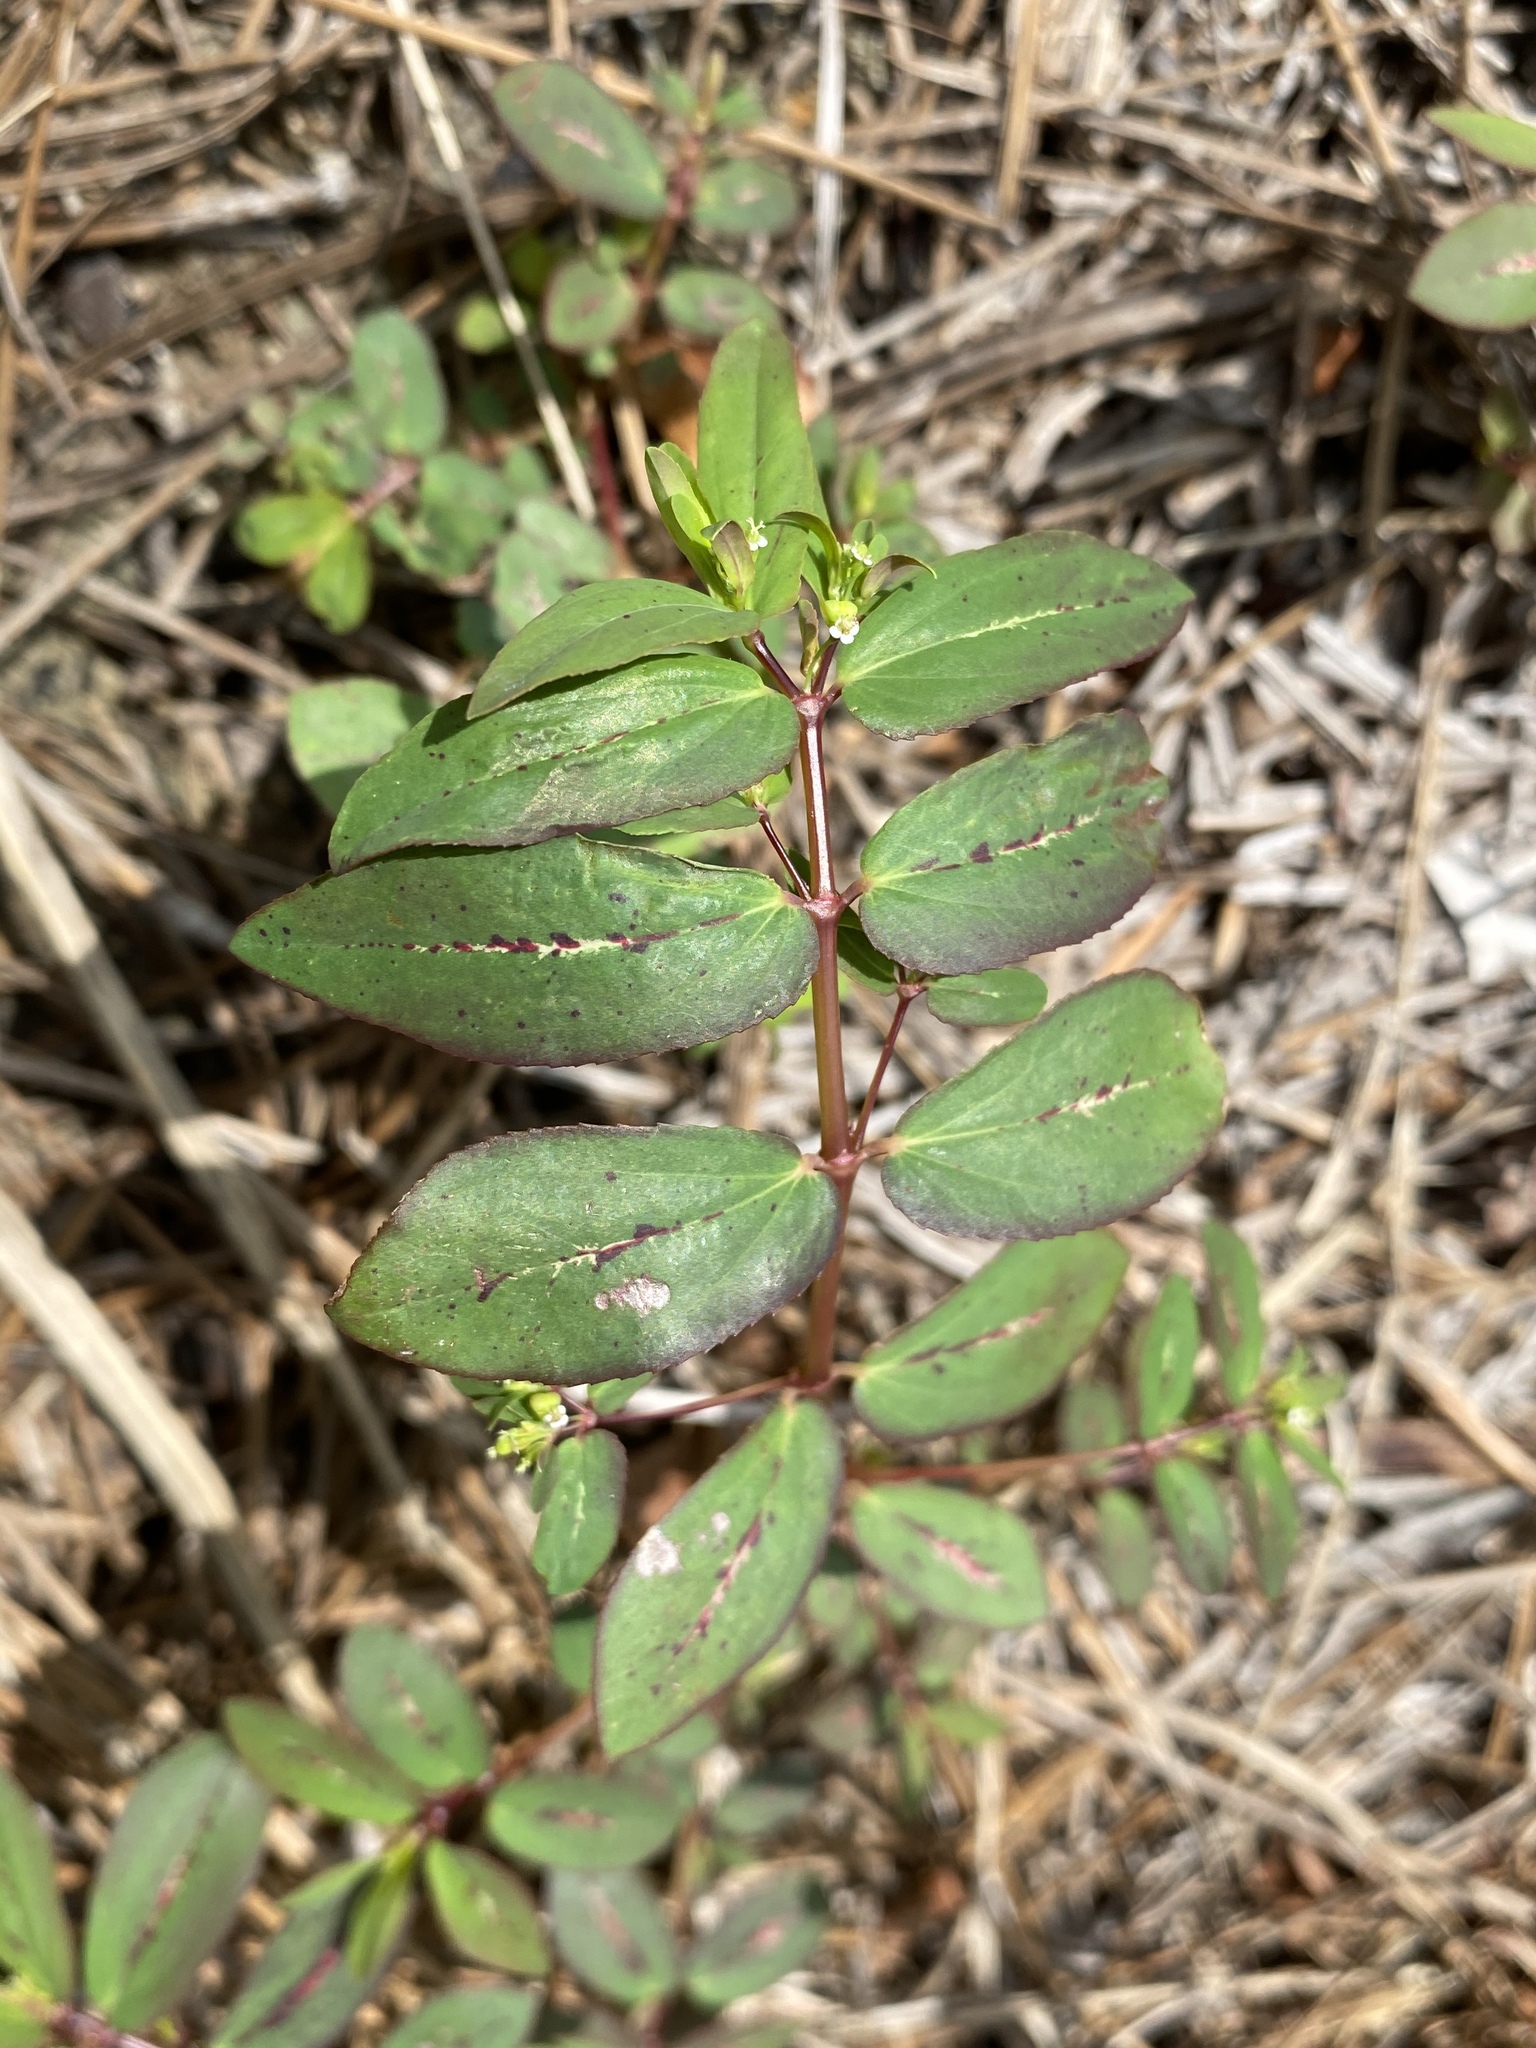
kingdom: Plantae
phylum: Tracheophyta
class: Magnoliopsida
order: Malpighiales
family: Euphorbiaceae
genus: Euphorbia
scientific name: Euphorbia hyssopifolia
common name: Hyssopleaf sandmat
